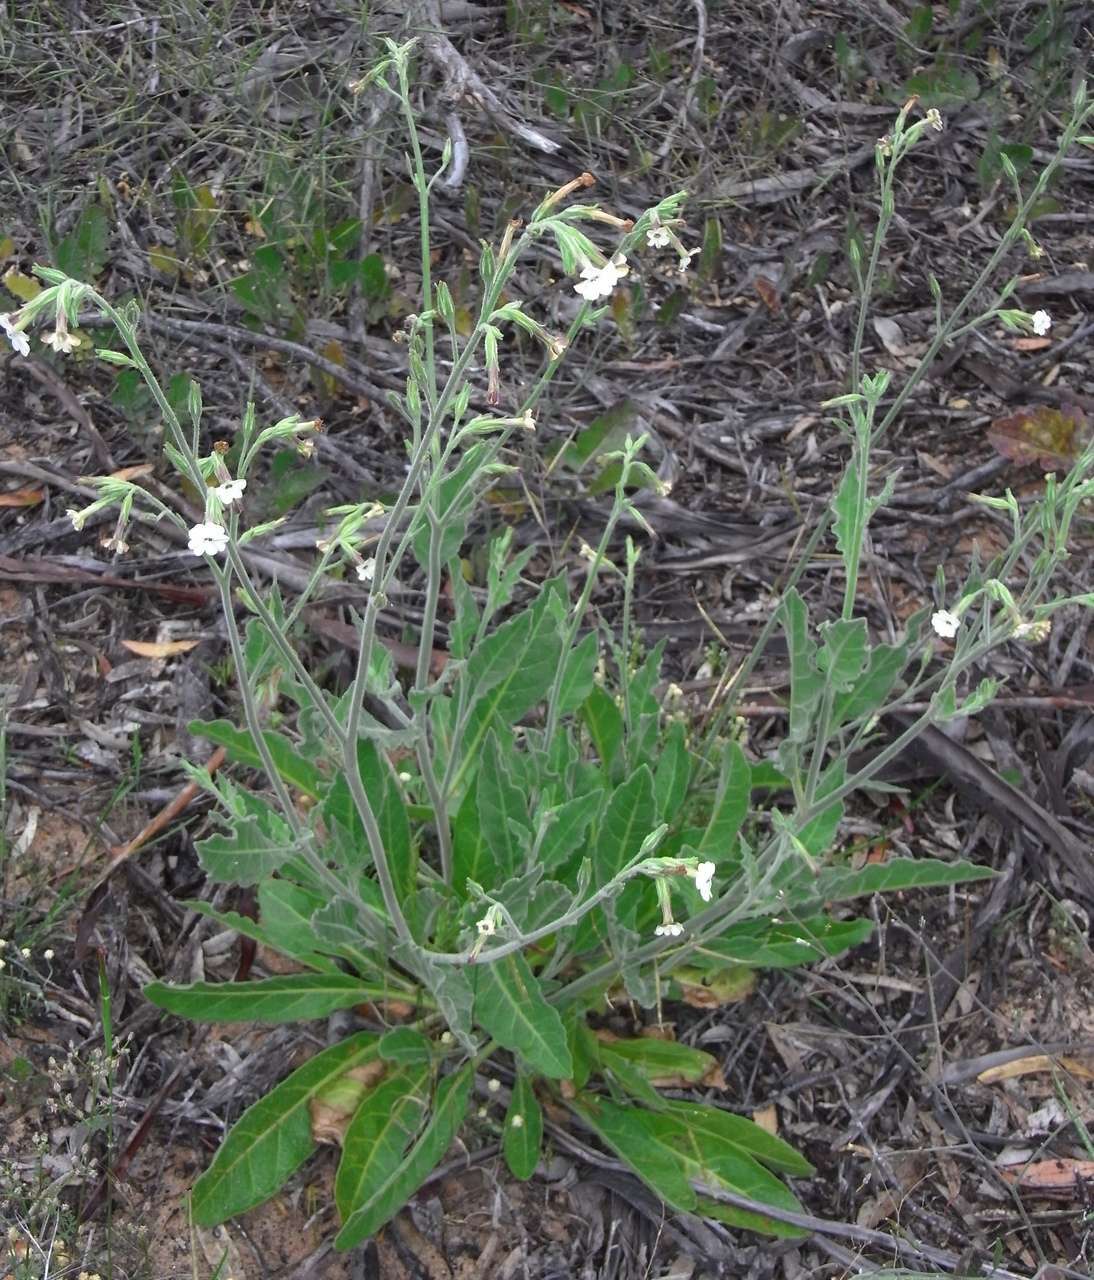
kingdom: Plantae
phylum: Tracheophyta
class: Magnoliopsida
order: Solanales
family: Solanaceae
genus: Nicotiana
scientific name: Nicotiana velutina
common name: Velvet tobacco
